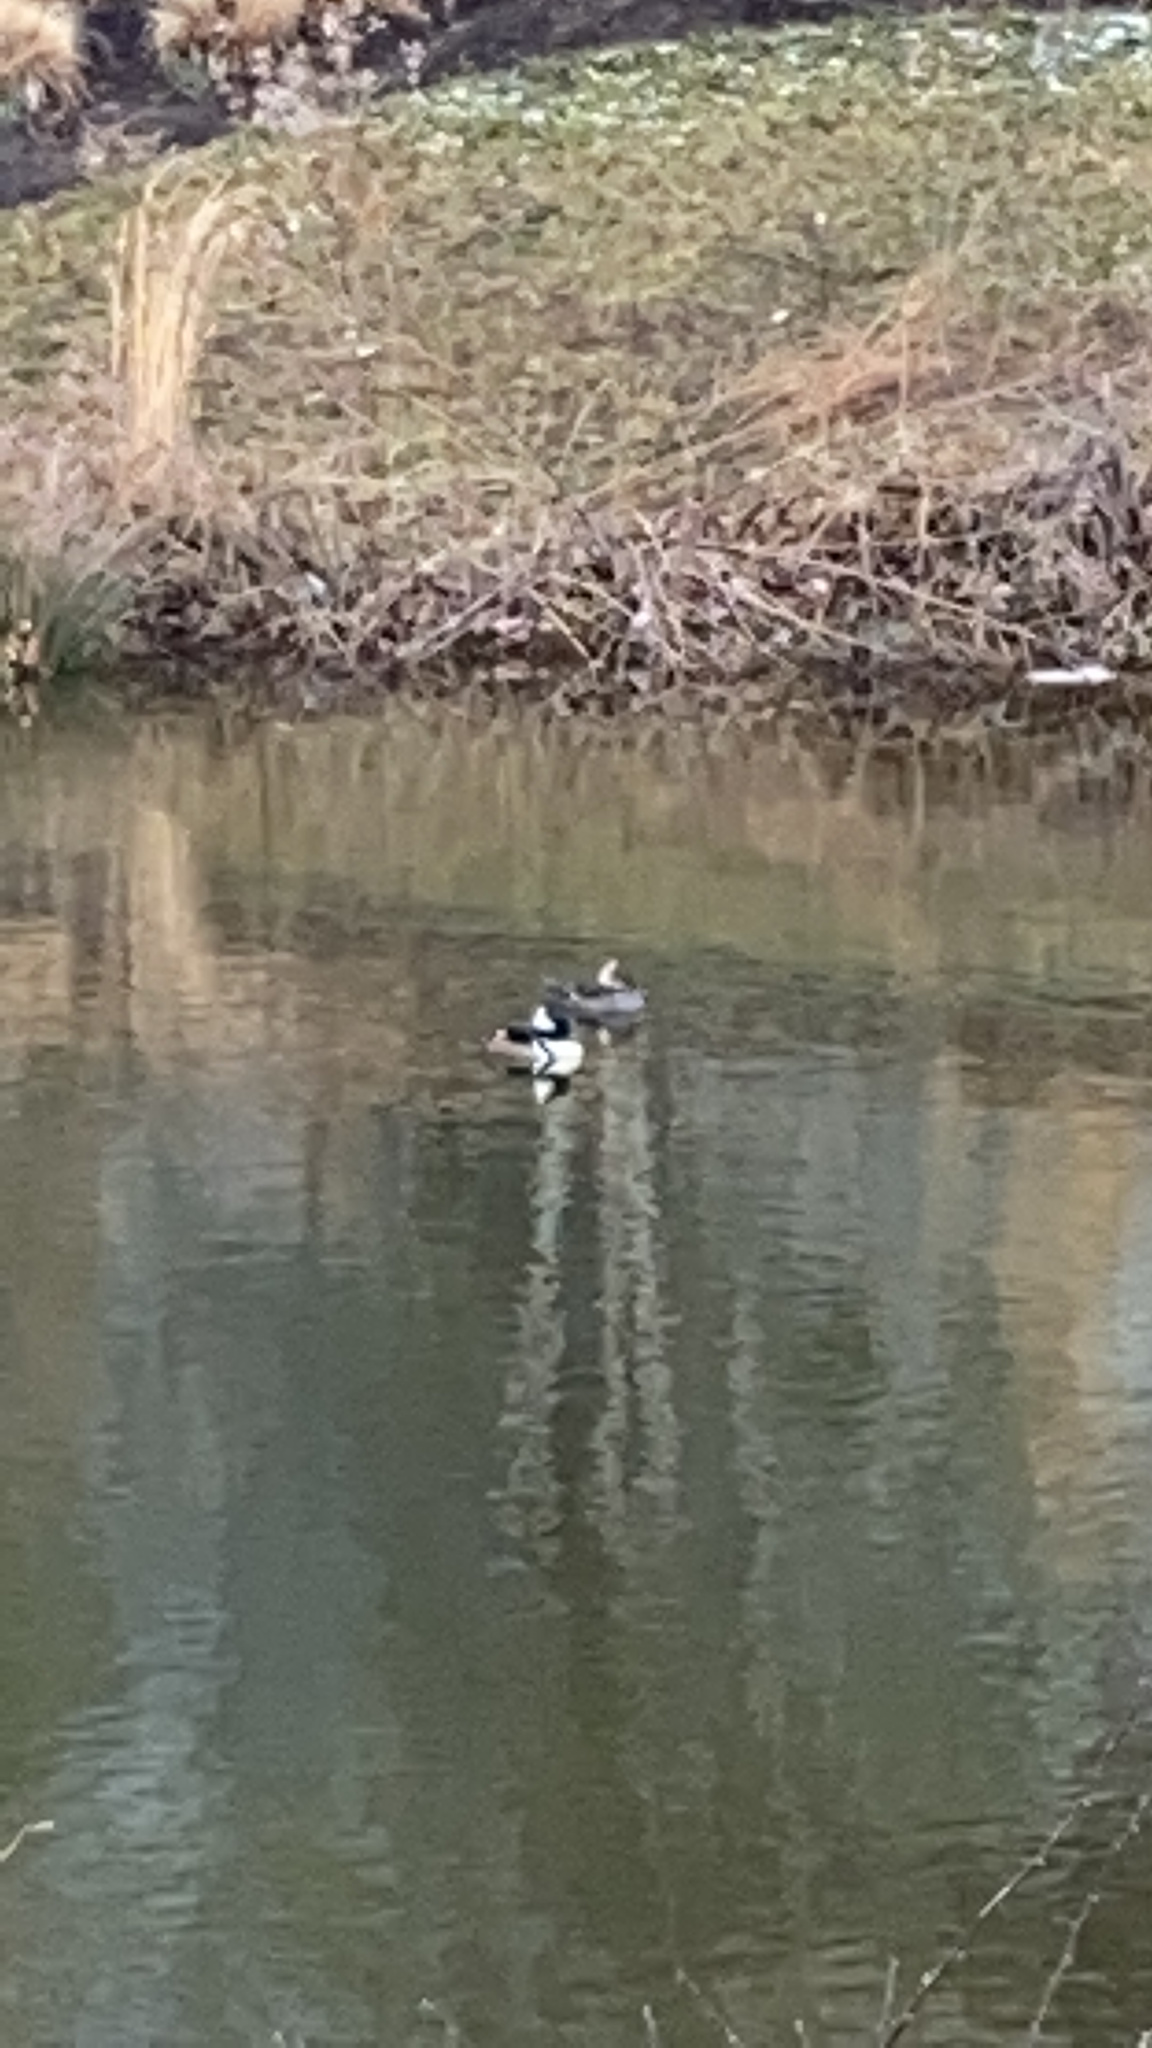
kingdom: Animalia
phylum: Chordata
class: Aves
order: Anseriformes
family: Anatidae
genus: Lophodytes
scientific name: Lophodytes cucullatus
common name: Hooded merganser
